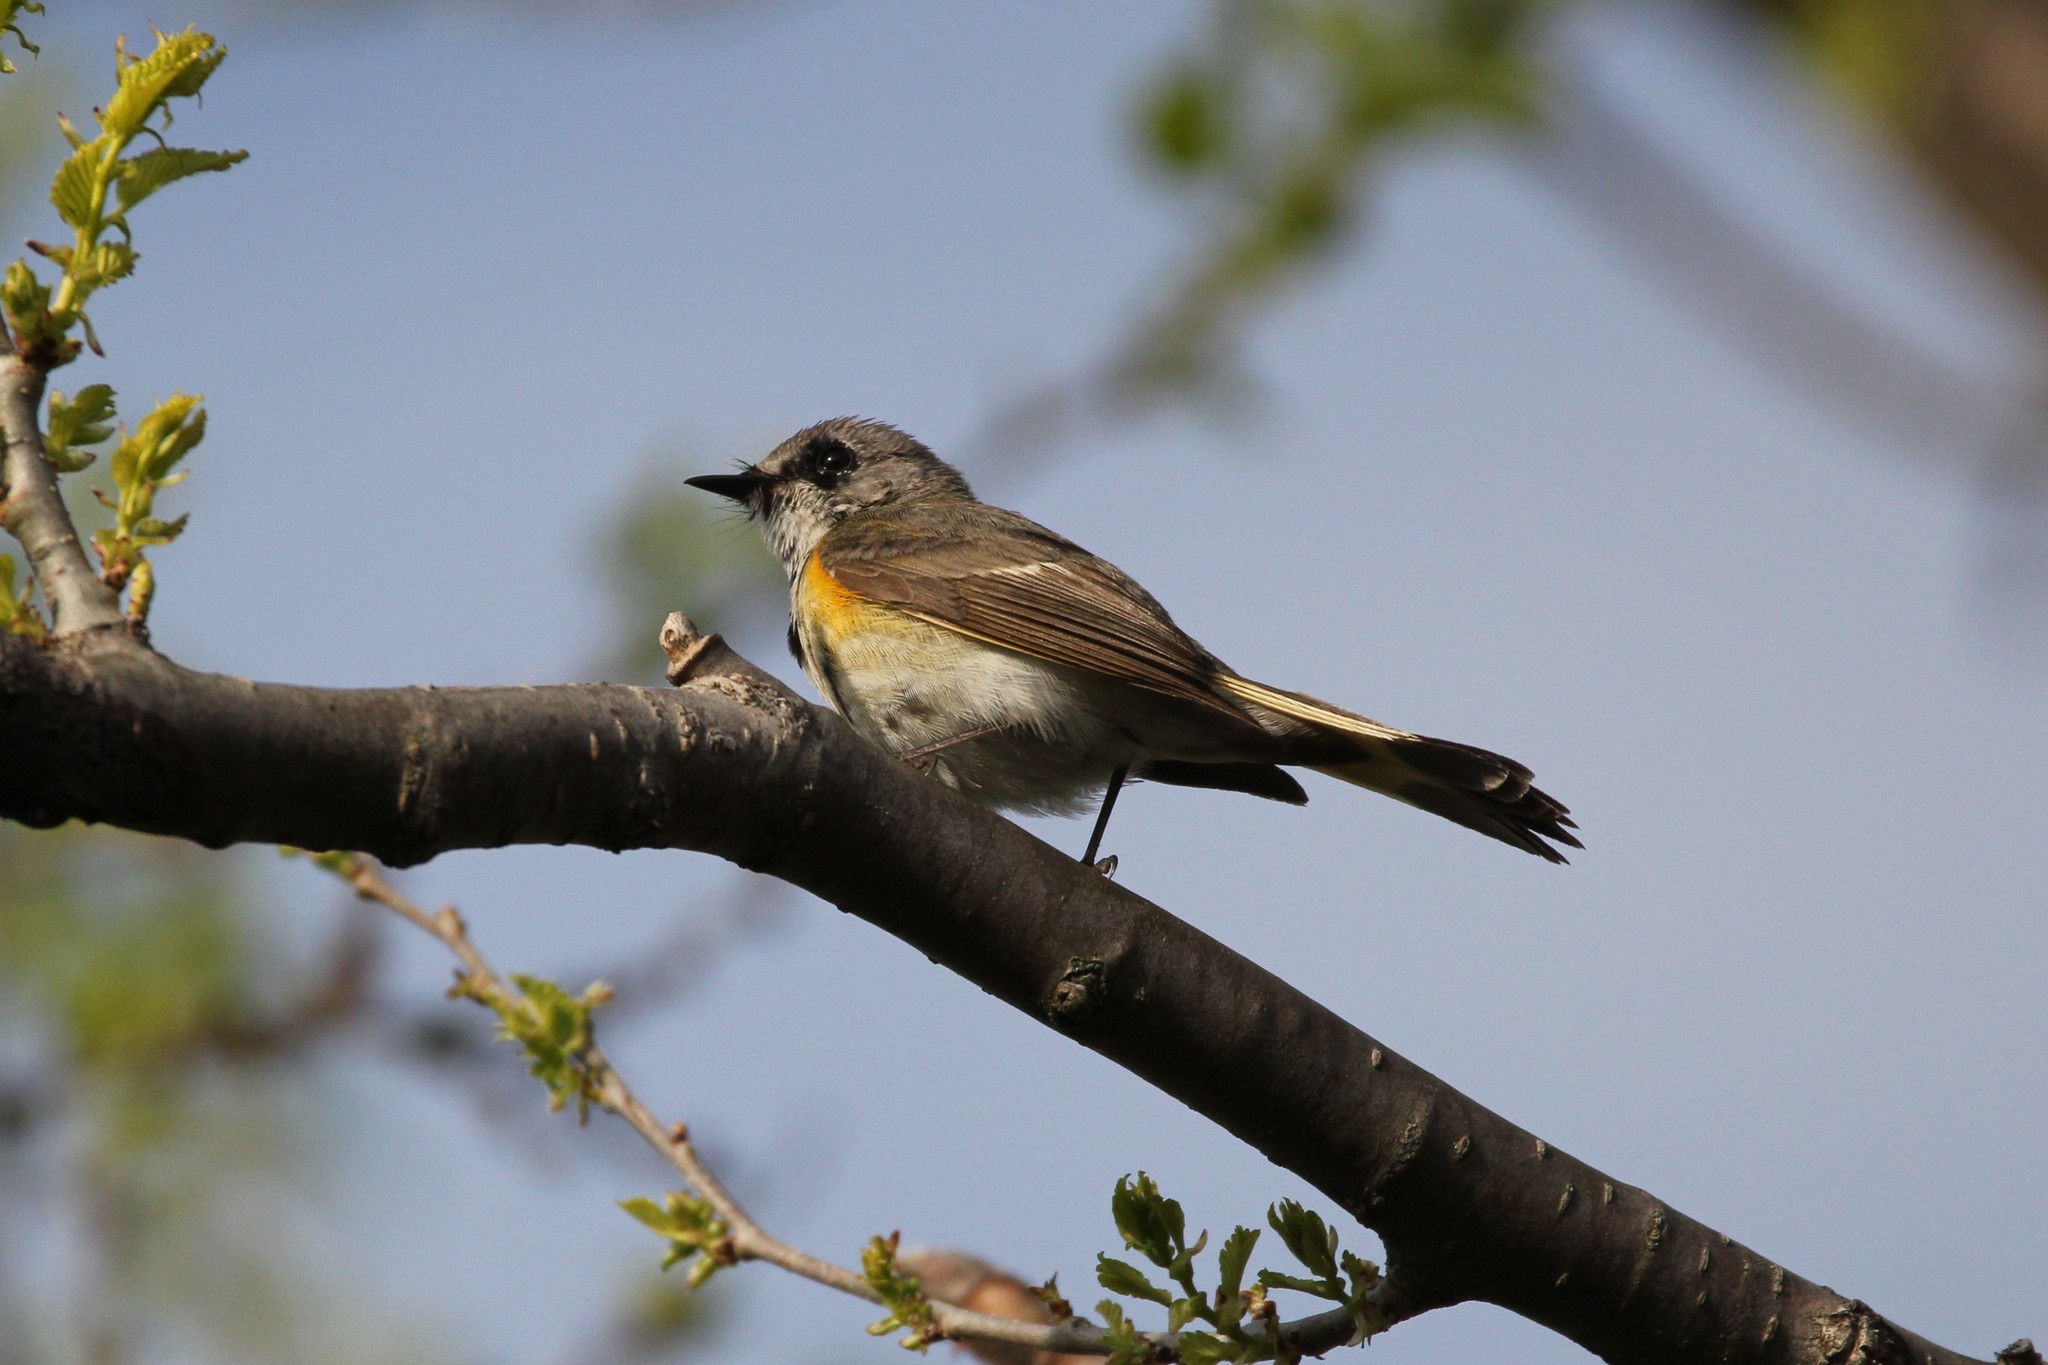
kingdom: Animalia
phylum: Chordata
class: Aves
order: Passeriformes
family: Parulidae
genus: Setophaga
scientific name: Setophaga ruticilla
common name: American redstart
